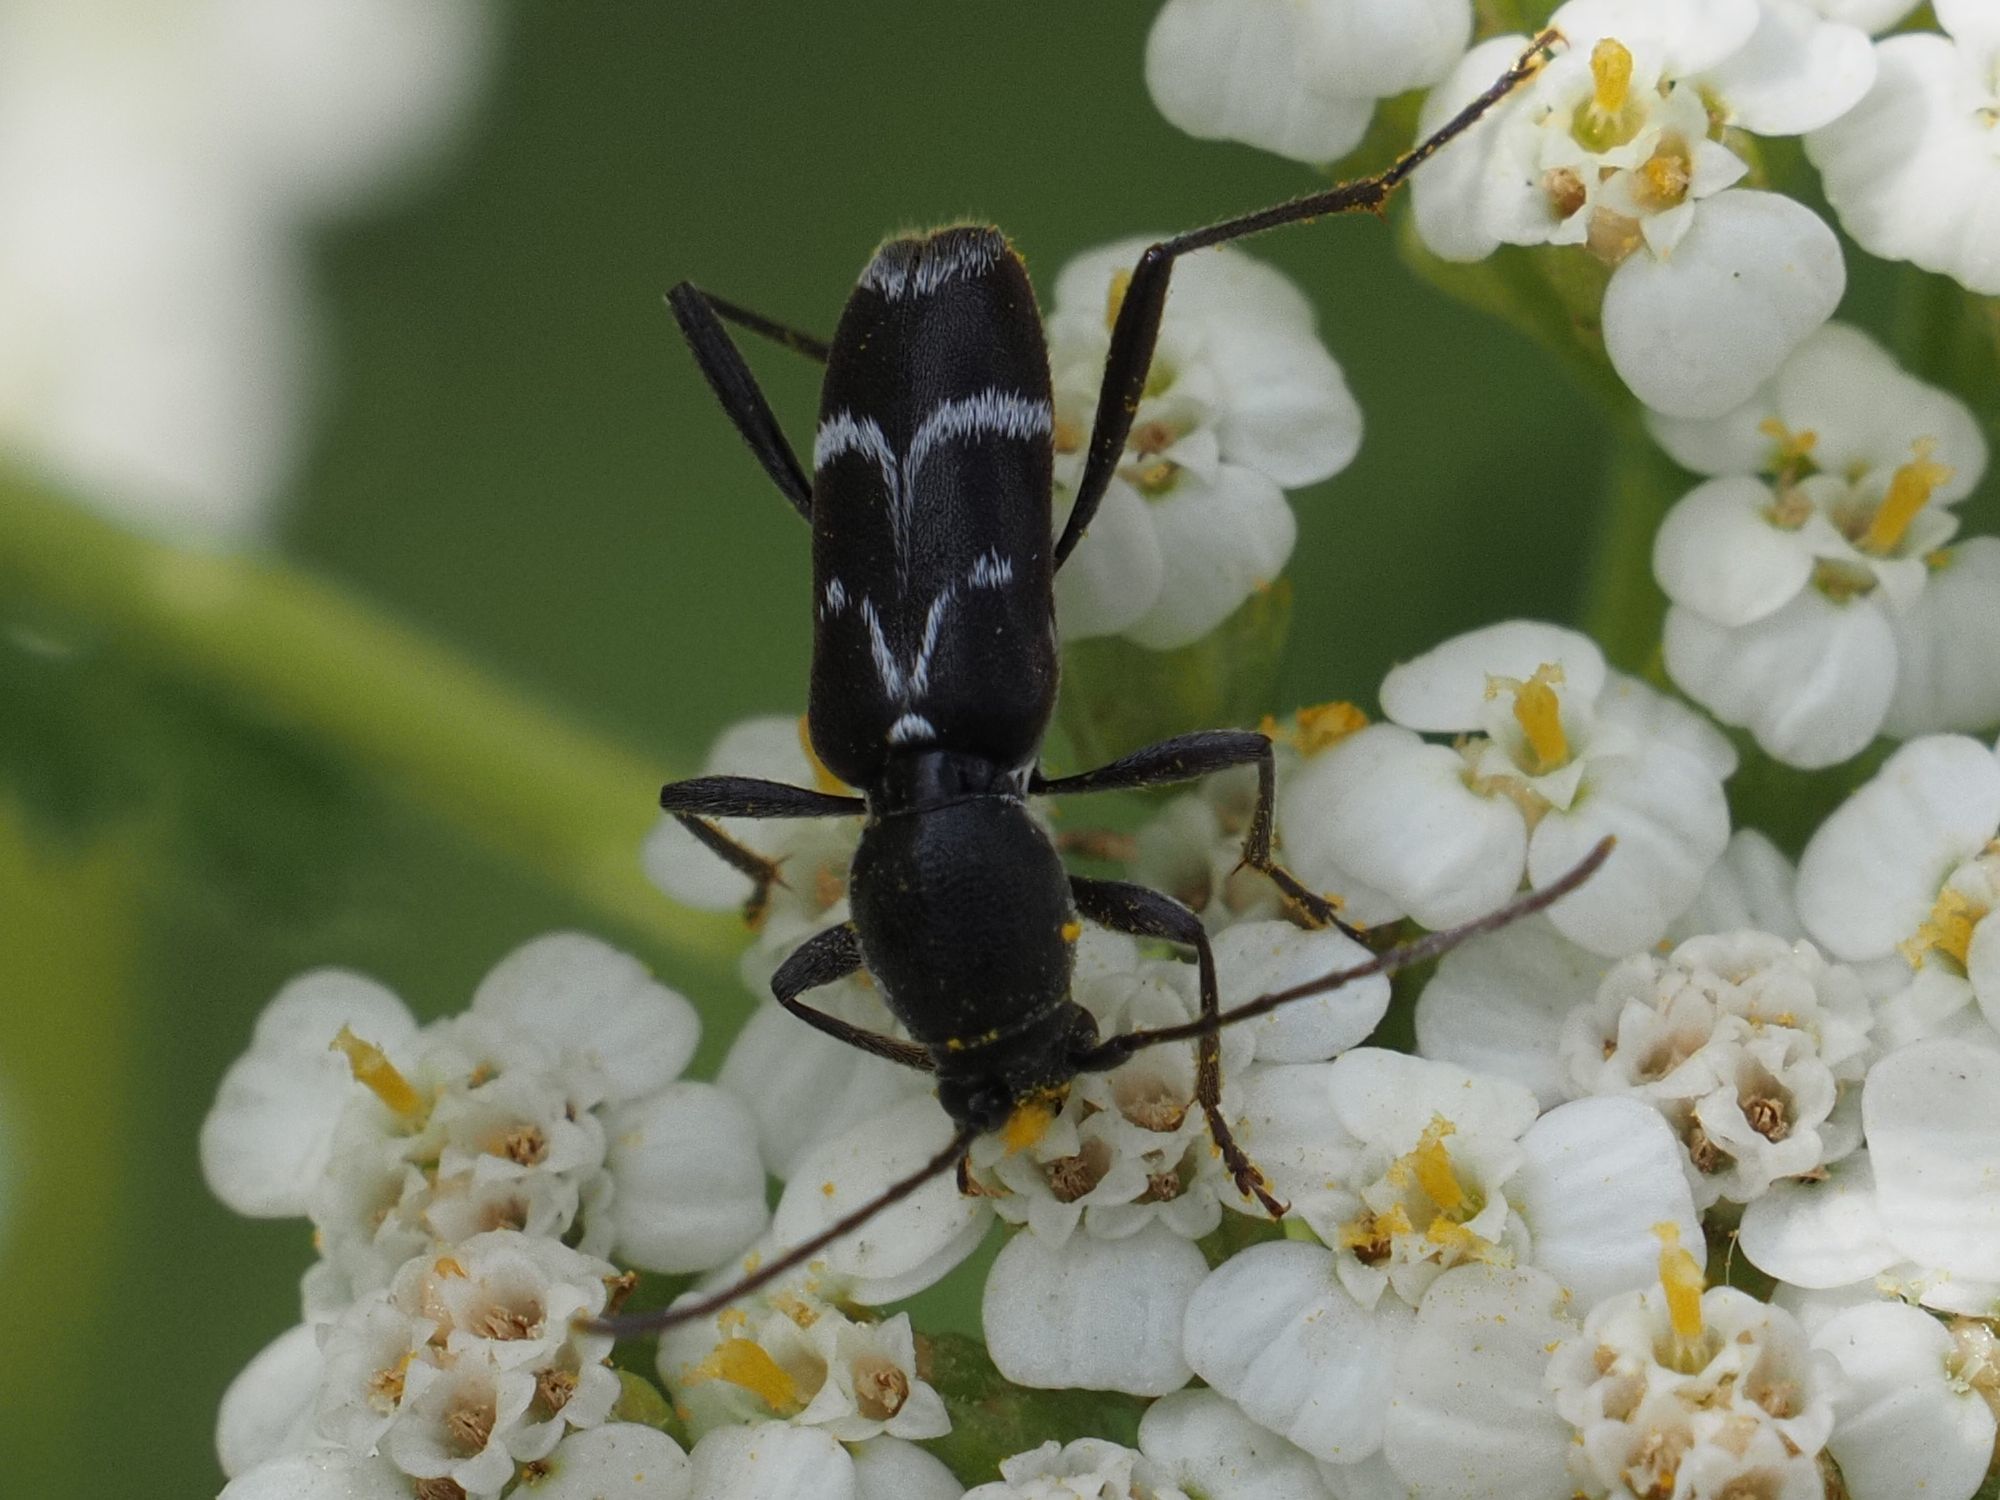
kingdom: Animalia
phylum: Arthropoda
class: Insecta
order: Coleoptera
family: Cerambycidae
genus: Chlorophorus
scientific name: Chlorophorus sartor
